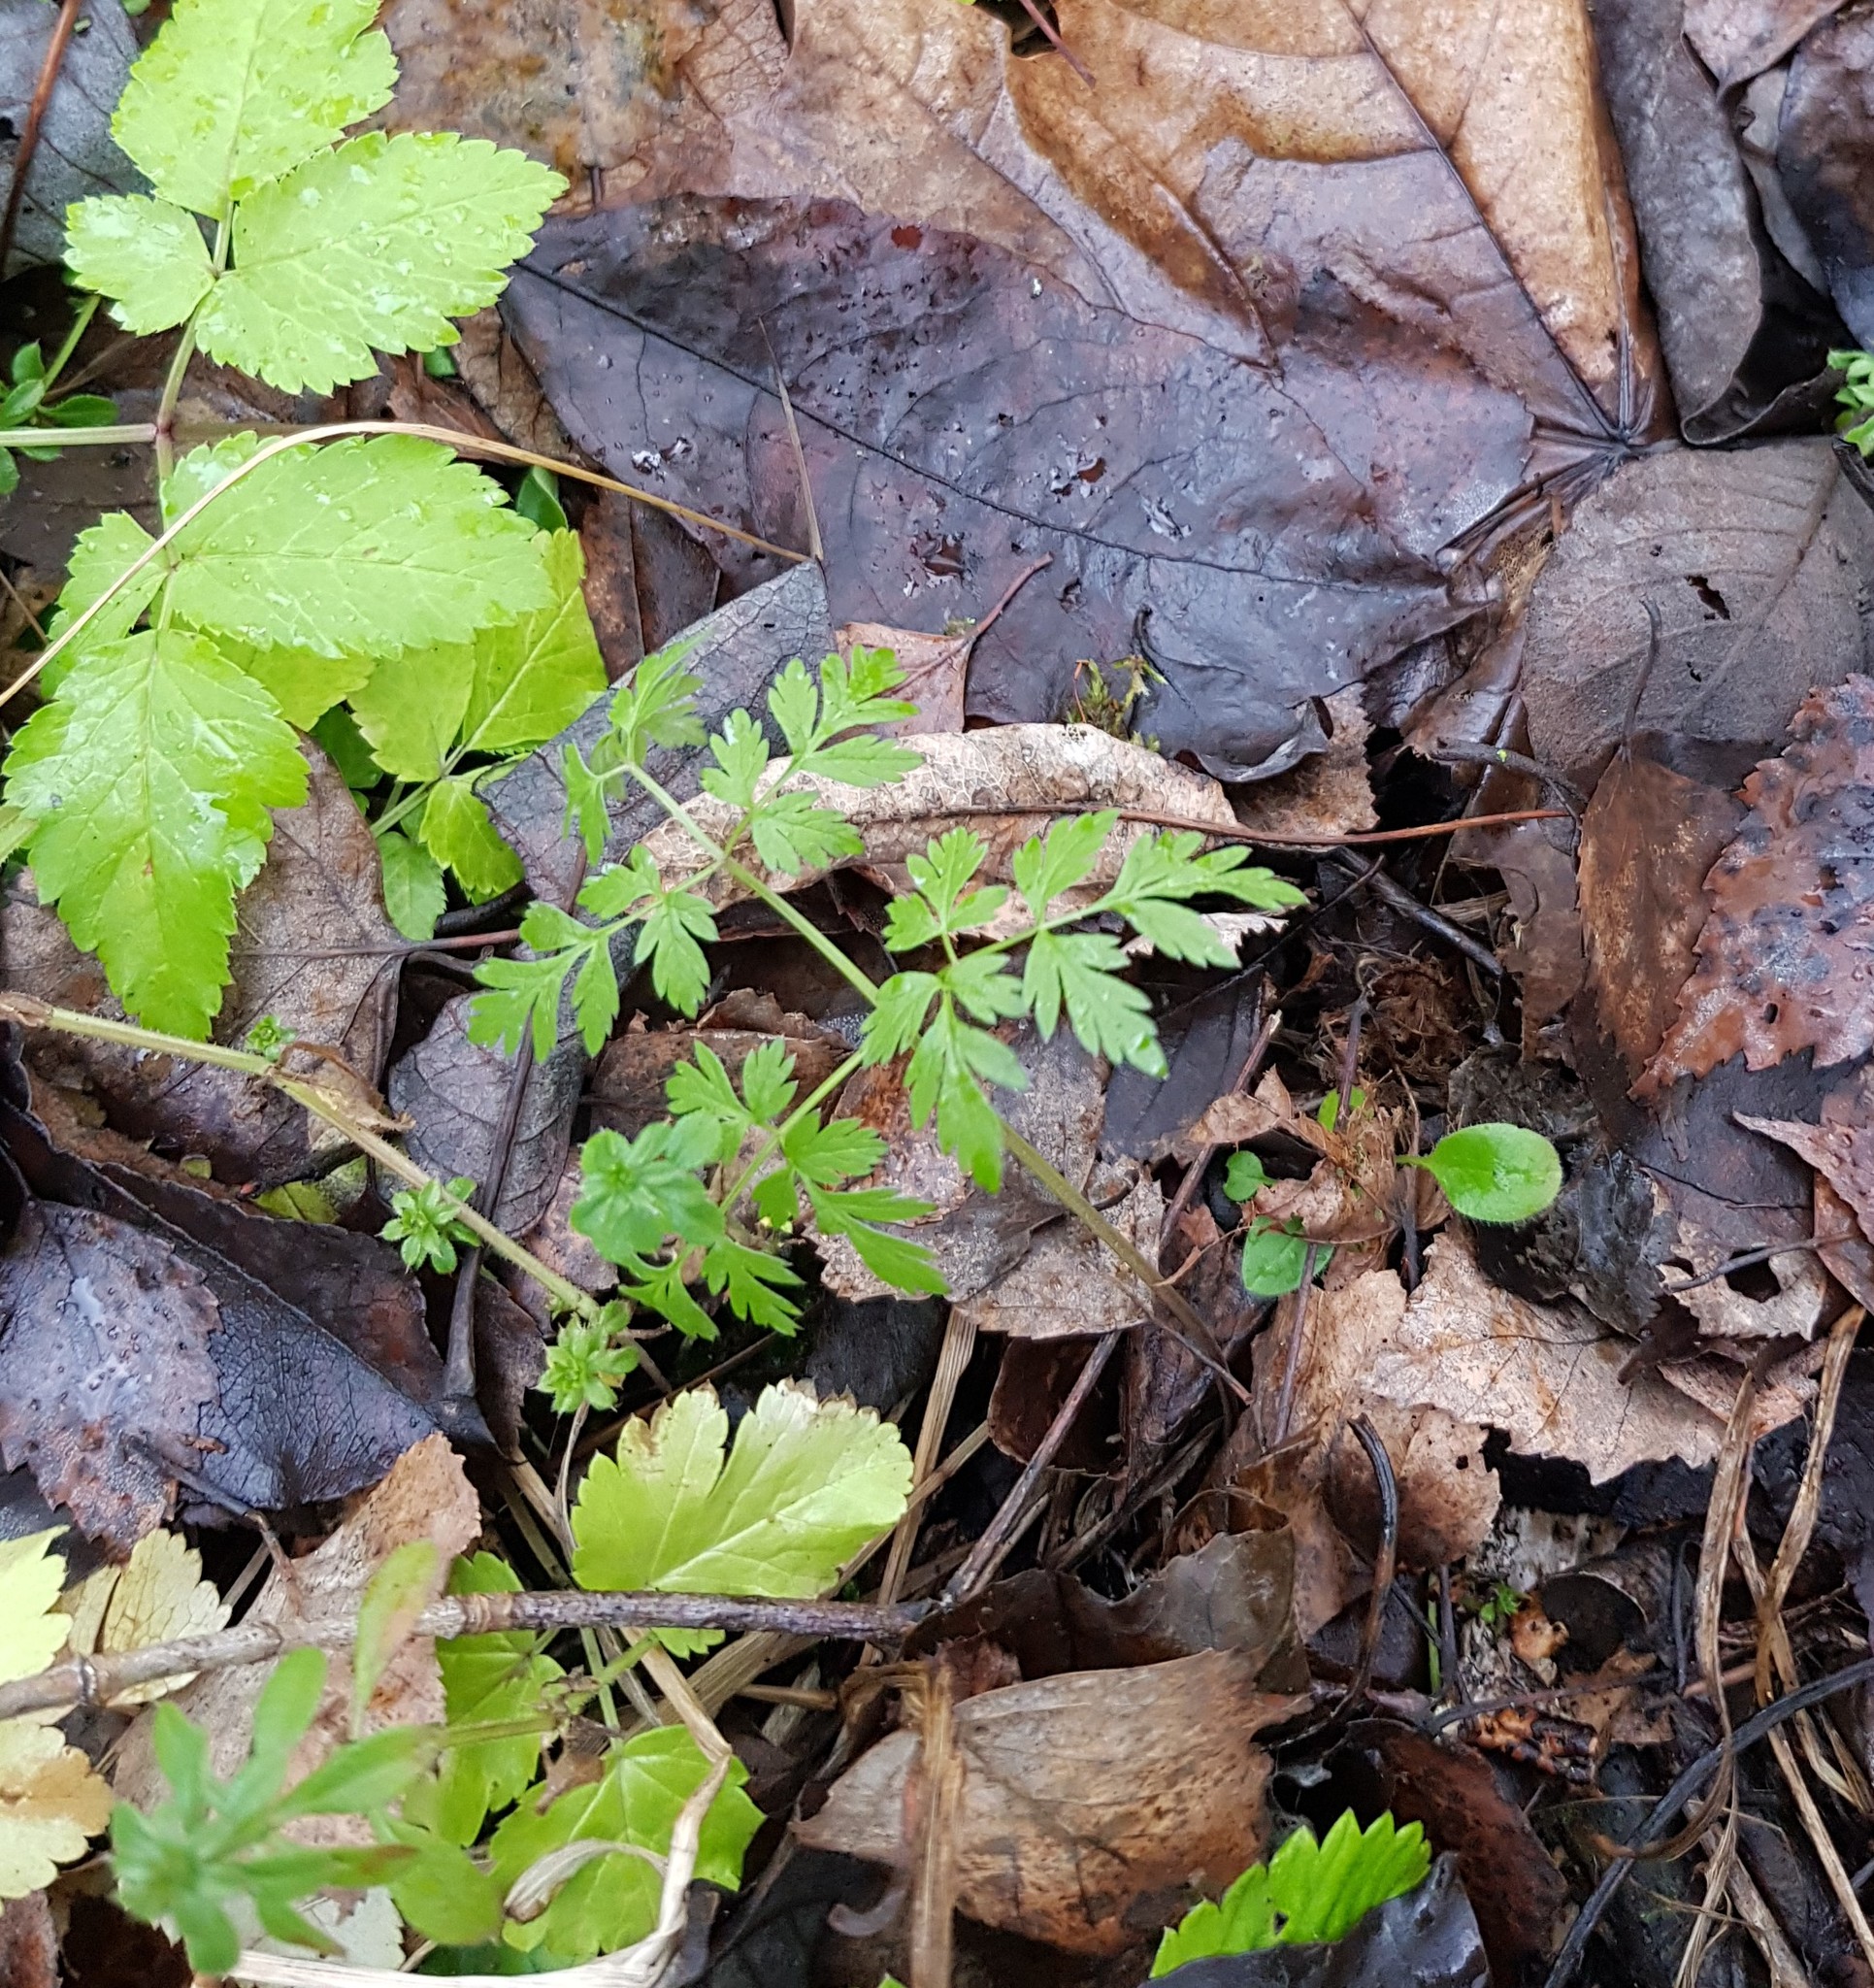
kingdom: Plantae
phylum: Tracheophyta
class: Magnoliopsida
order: Apiales
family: Apiaceae
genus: Anthriscus
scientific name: Anthriscus sylvestris
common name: Cow parsley
